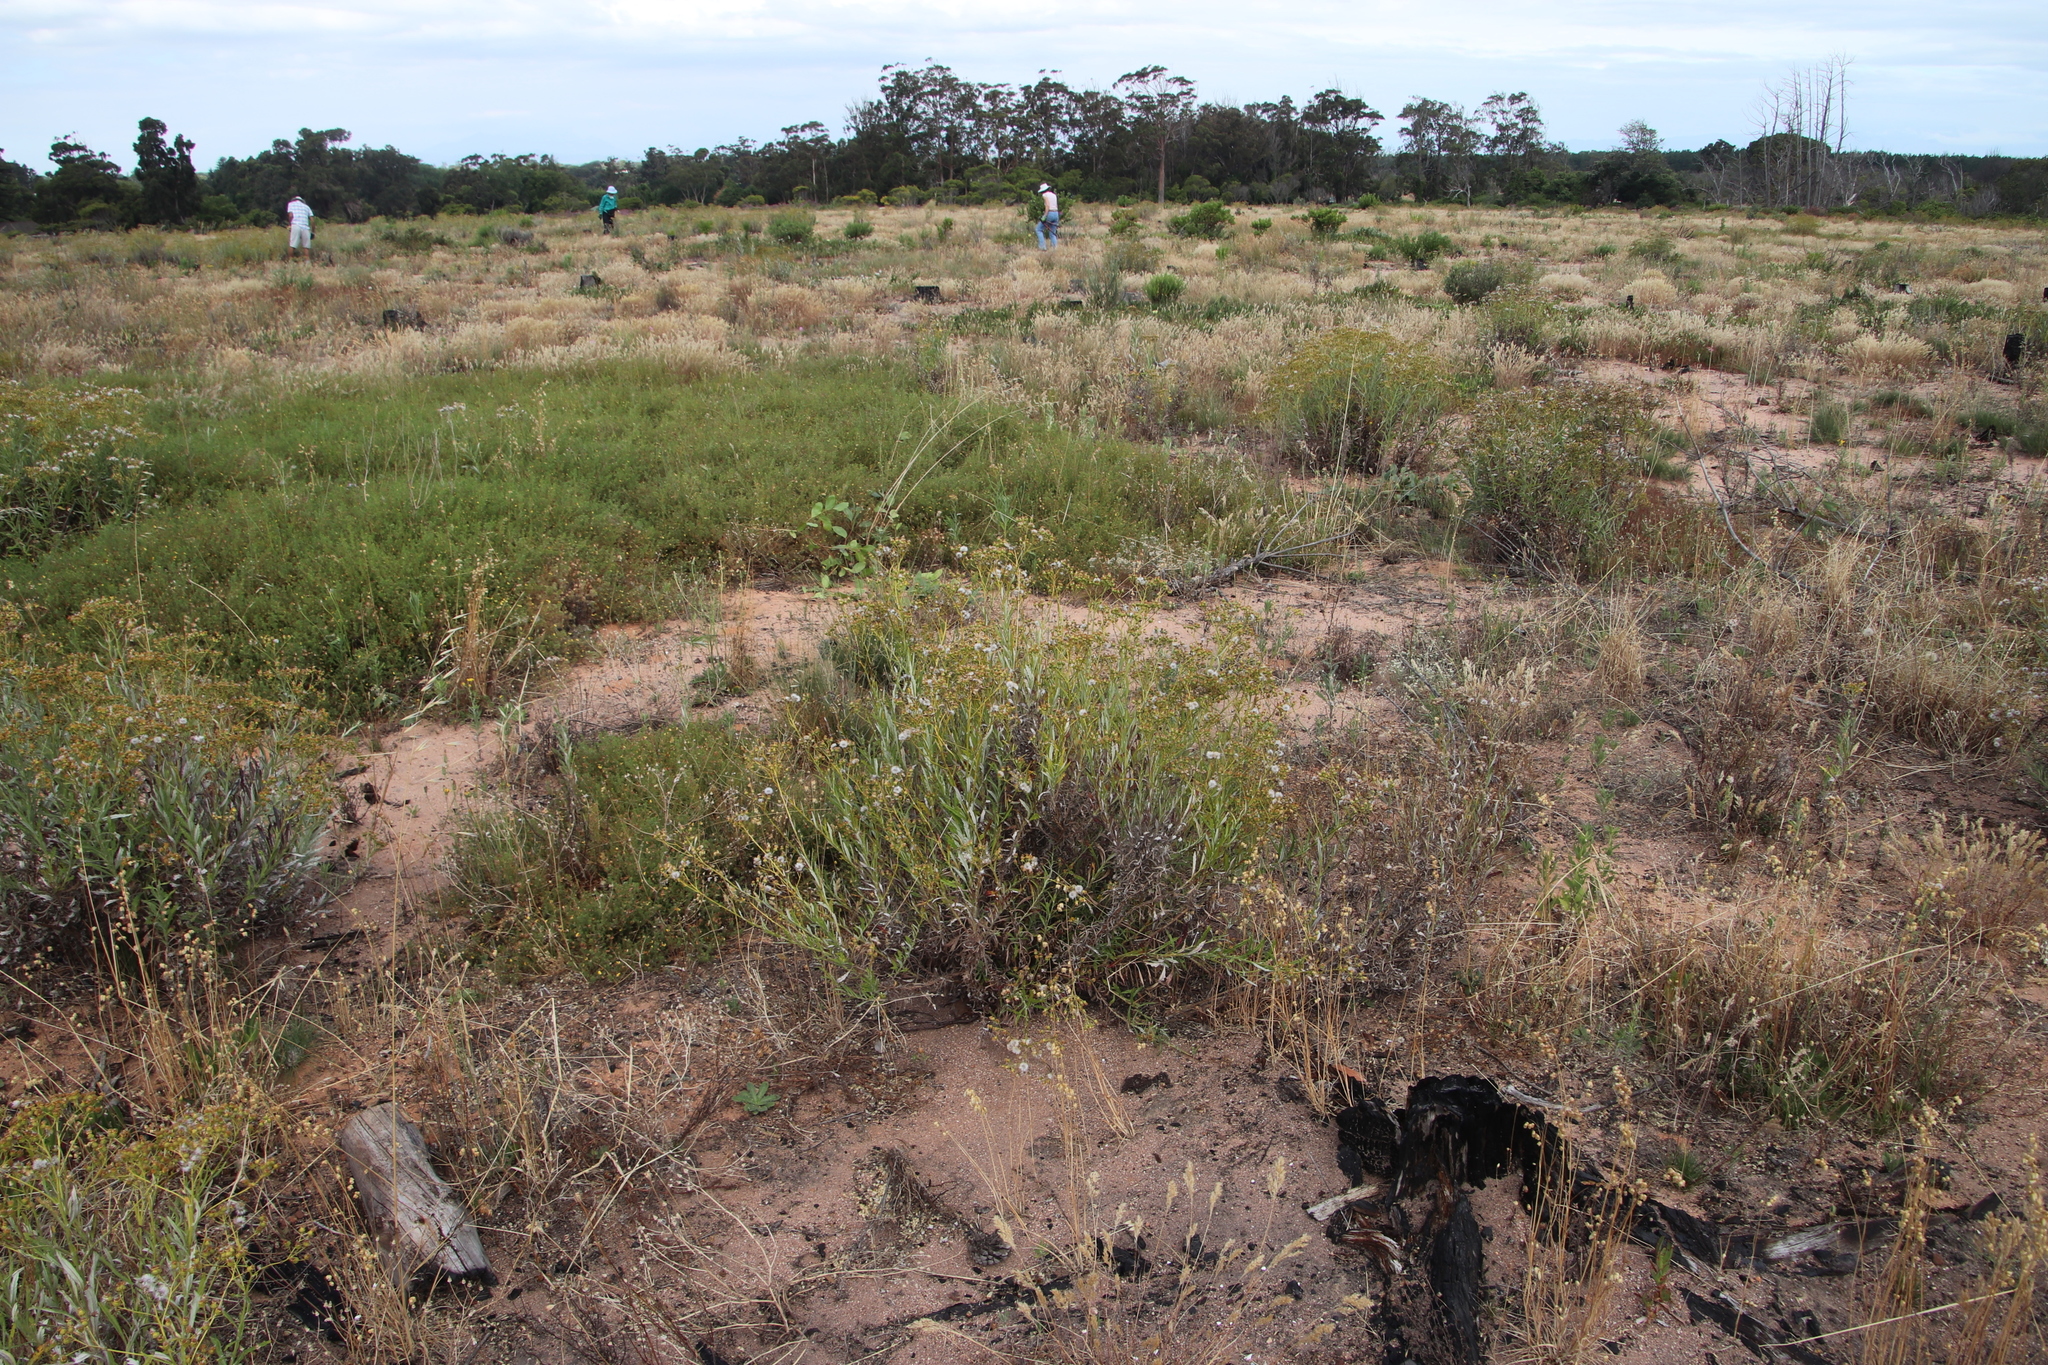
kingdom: Plantae
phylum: Tracheophyta
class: Magnoliopsida
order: Asterales
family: Asteraceae
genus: Senecio
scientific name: Senecio pterophorus
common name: Shoddy ragwort
